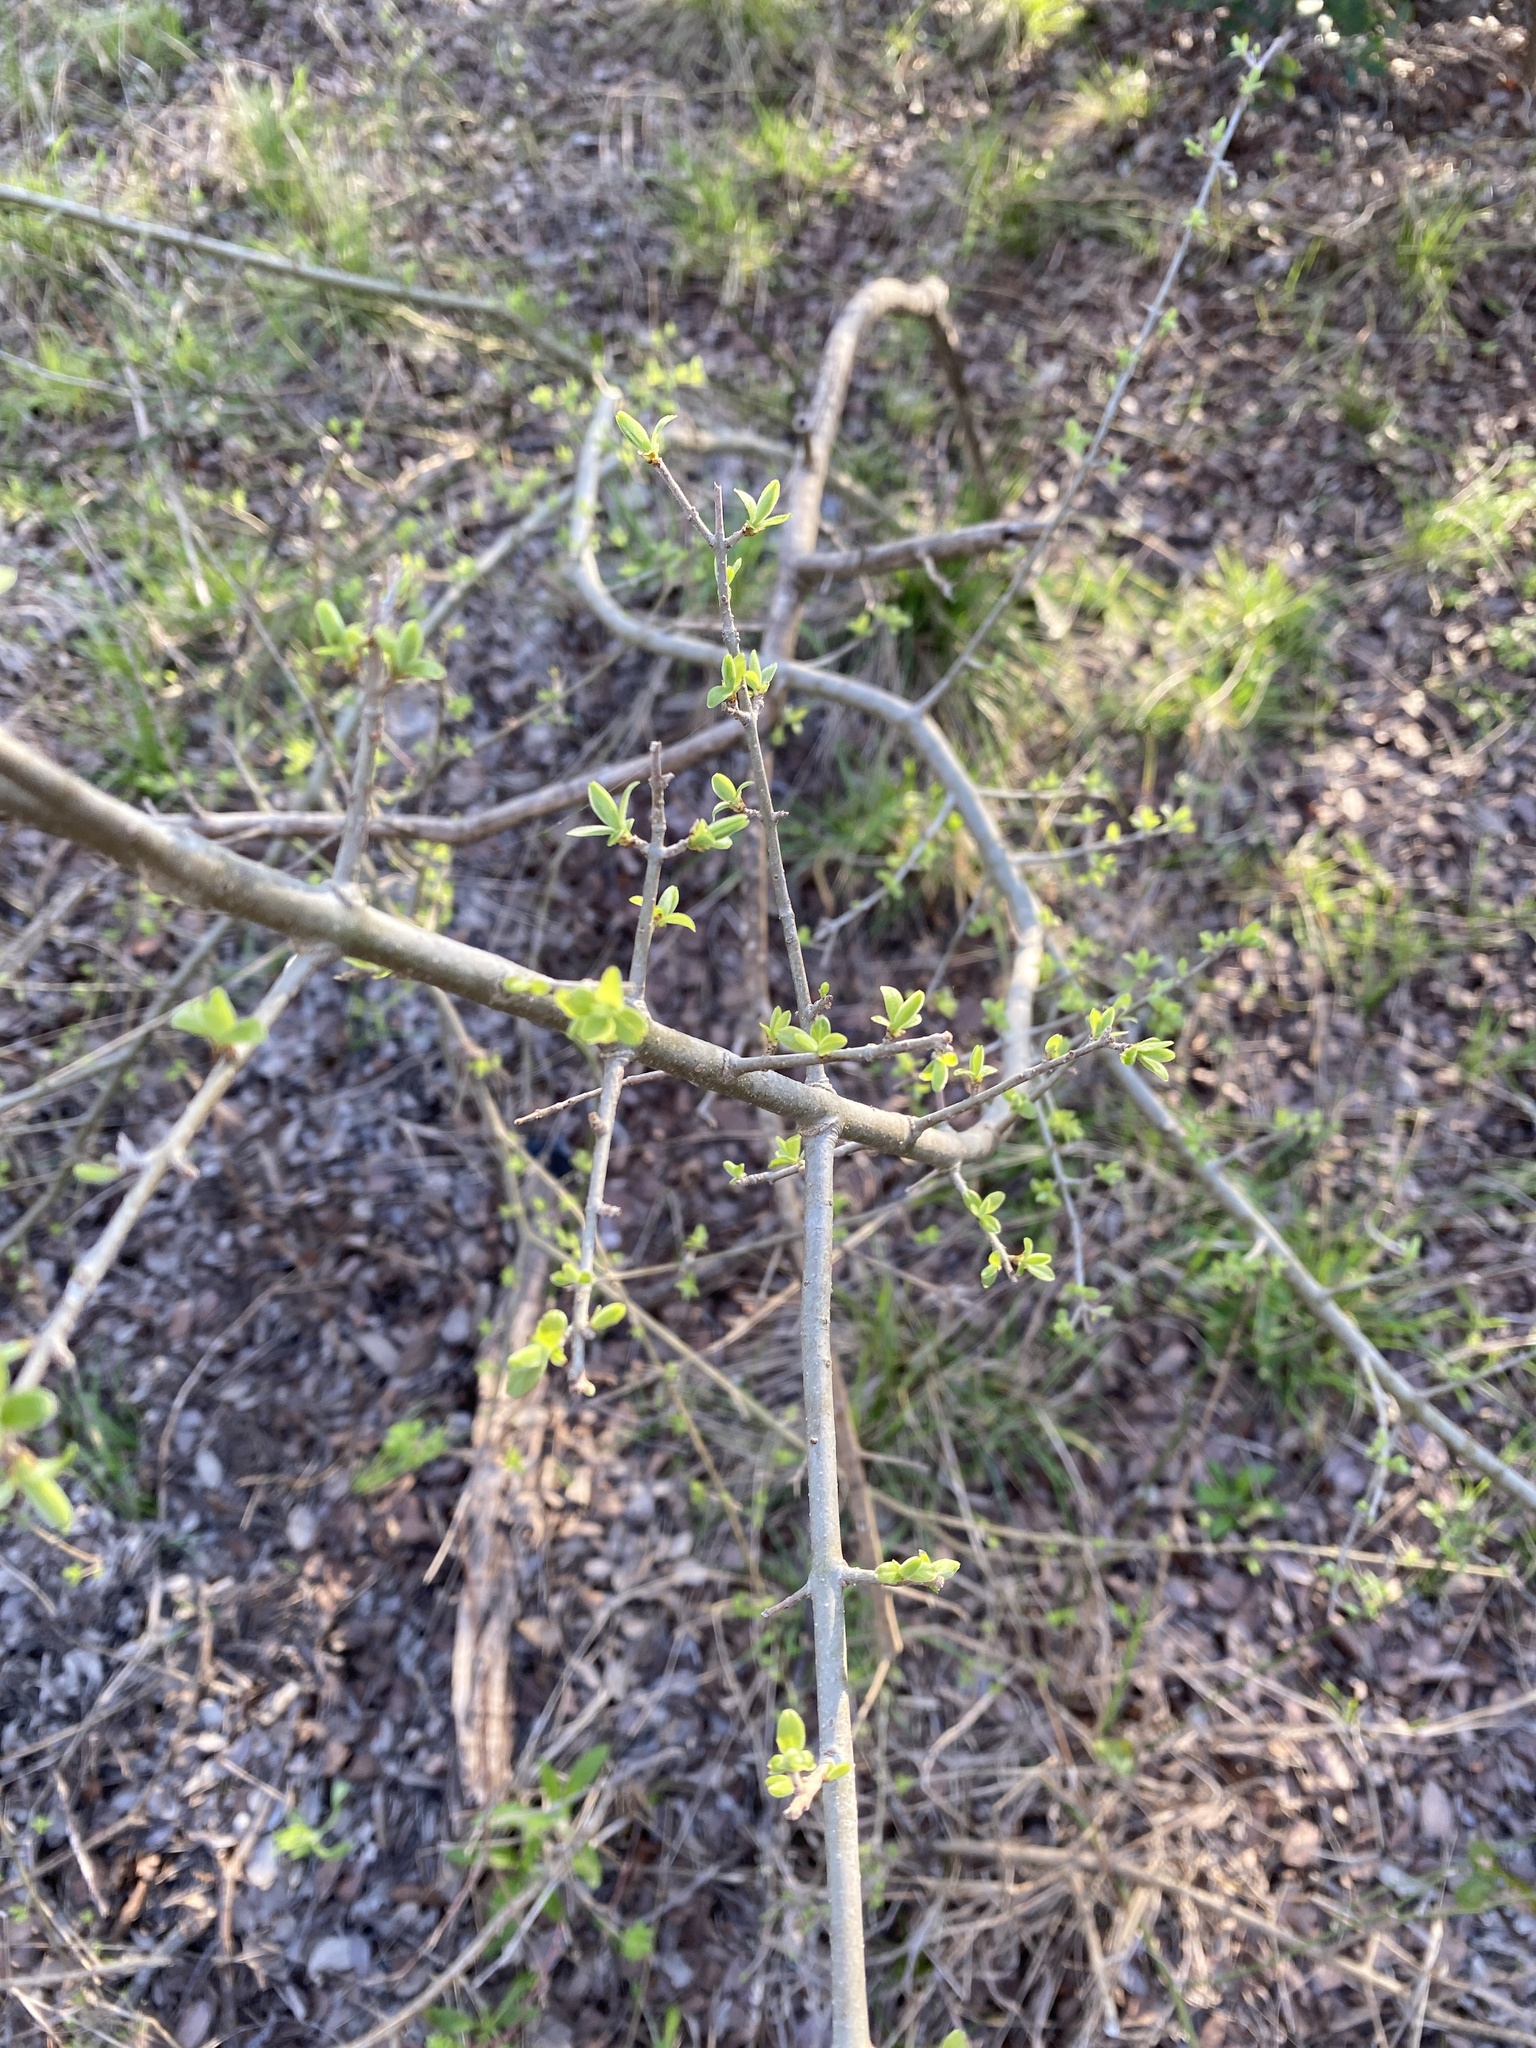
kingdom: Plantae
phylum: Tracheophyta
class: Magnoliopsida
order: Lamiales
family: Oleaceae
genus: Forestiera
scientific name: Forestiera pubescens
